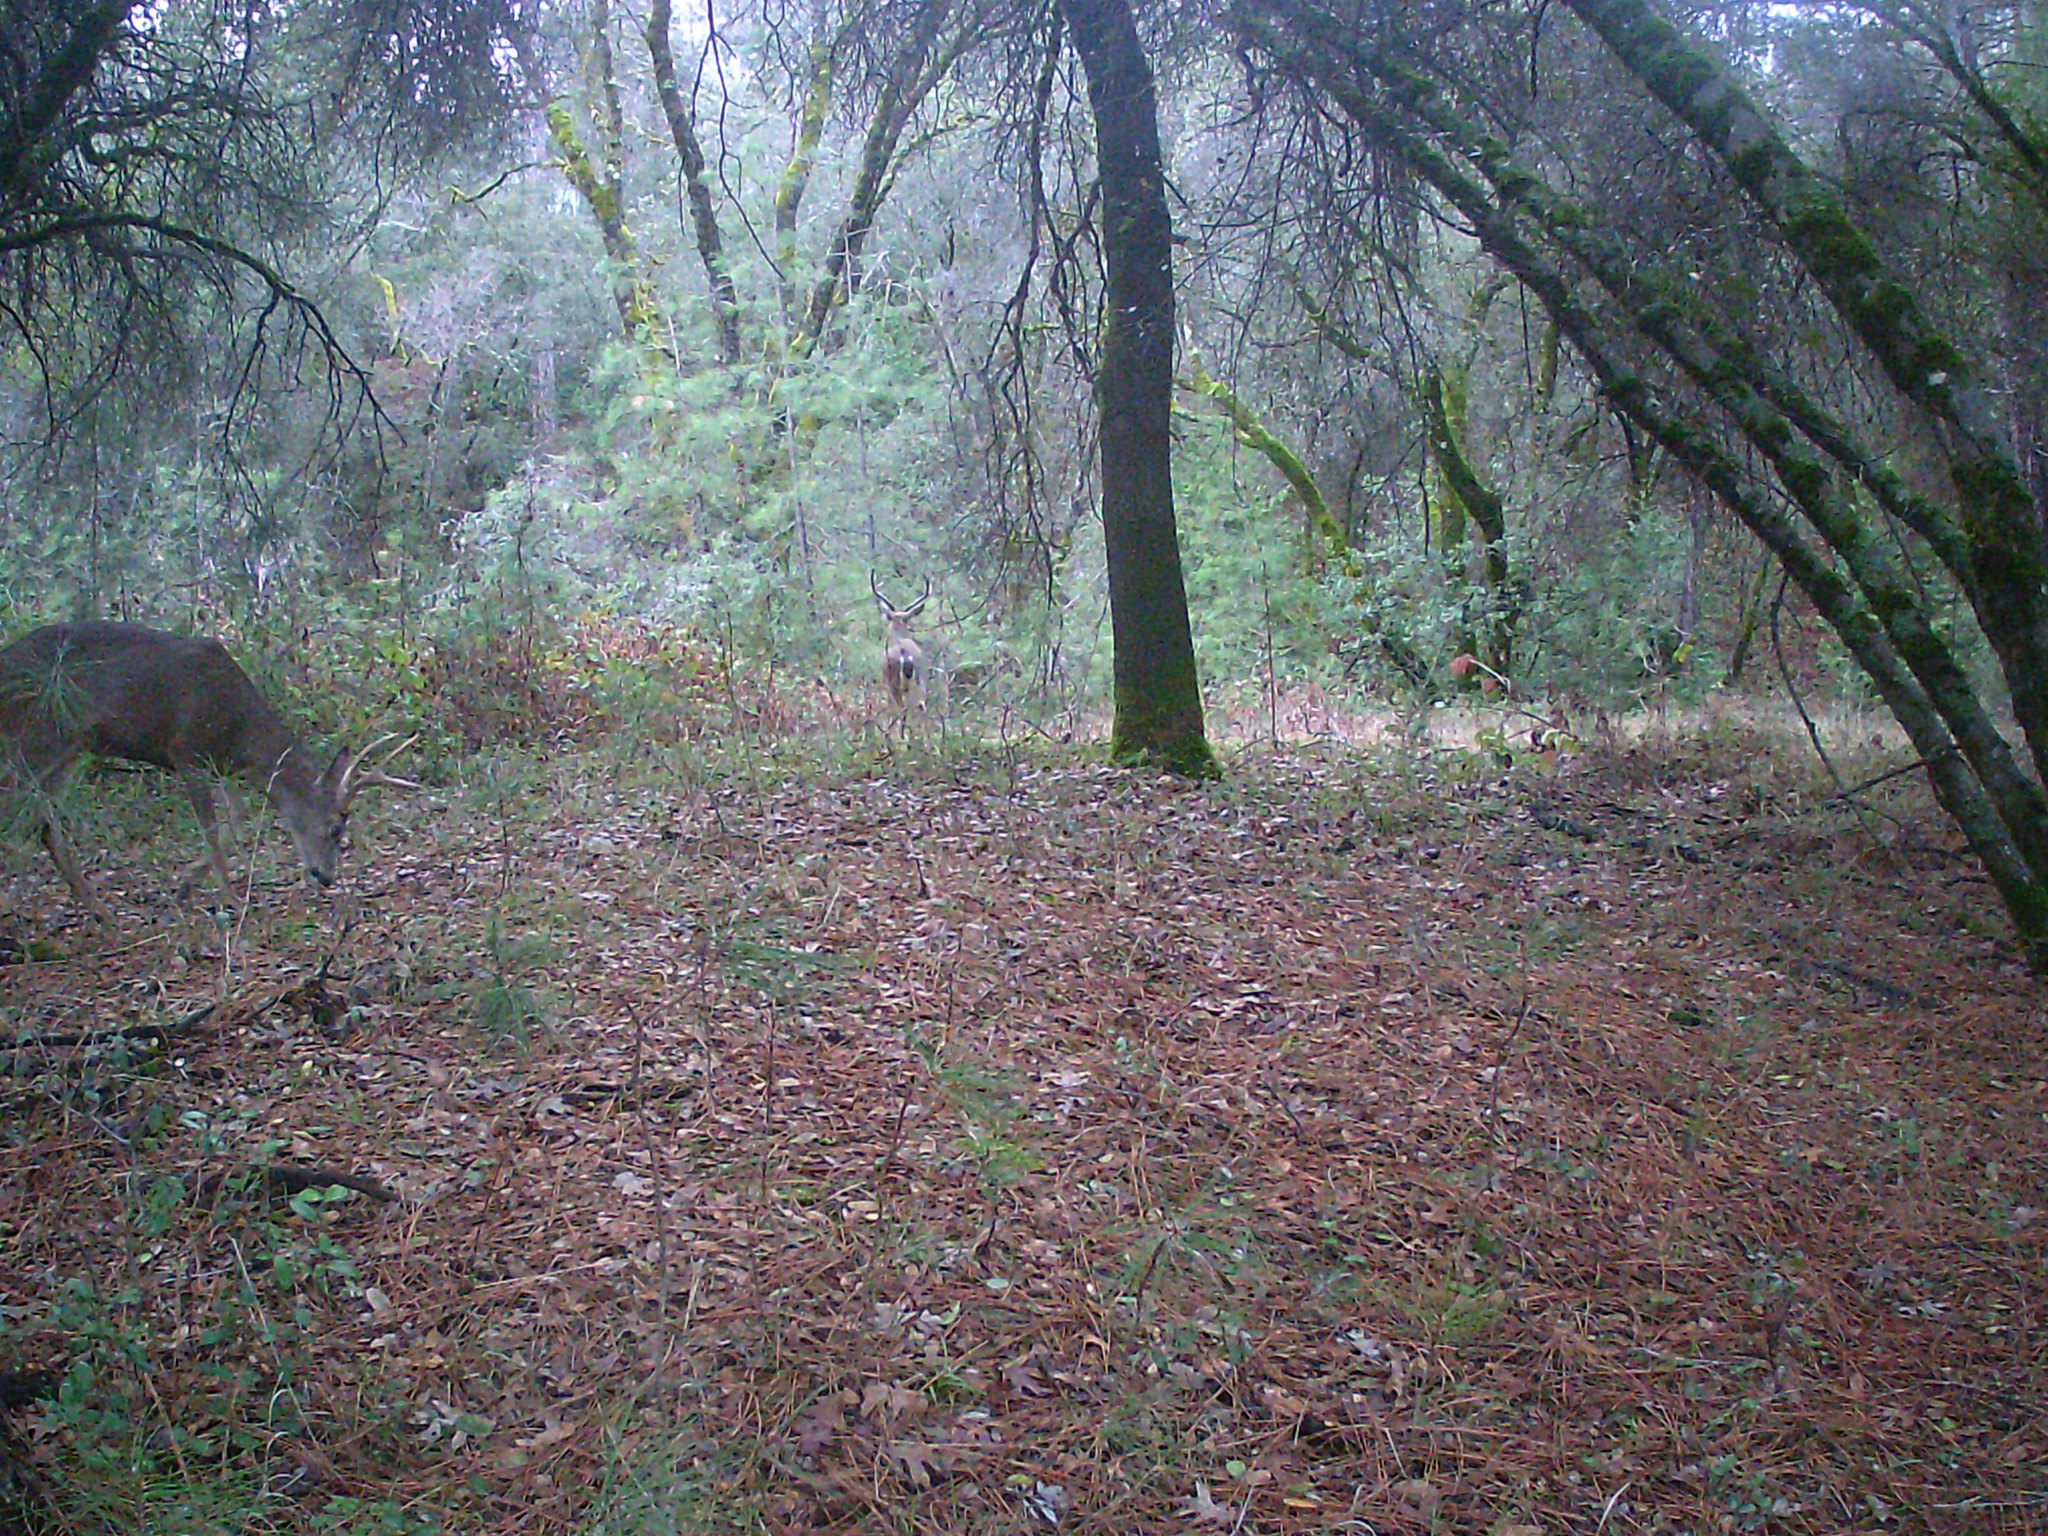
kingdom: Animalia
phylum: Chordata
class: Mammalia
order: Artiodactyla
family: Cervidae
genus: Odocoileus
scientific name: Odocoileus hemionus
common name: Mule deer
